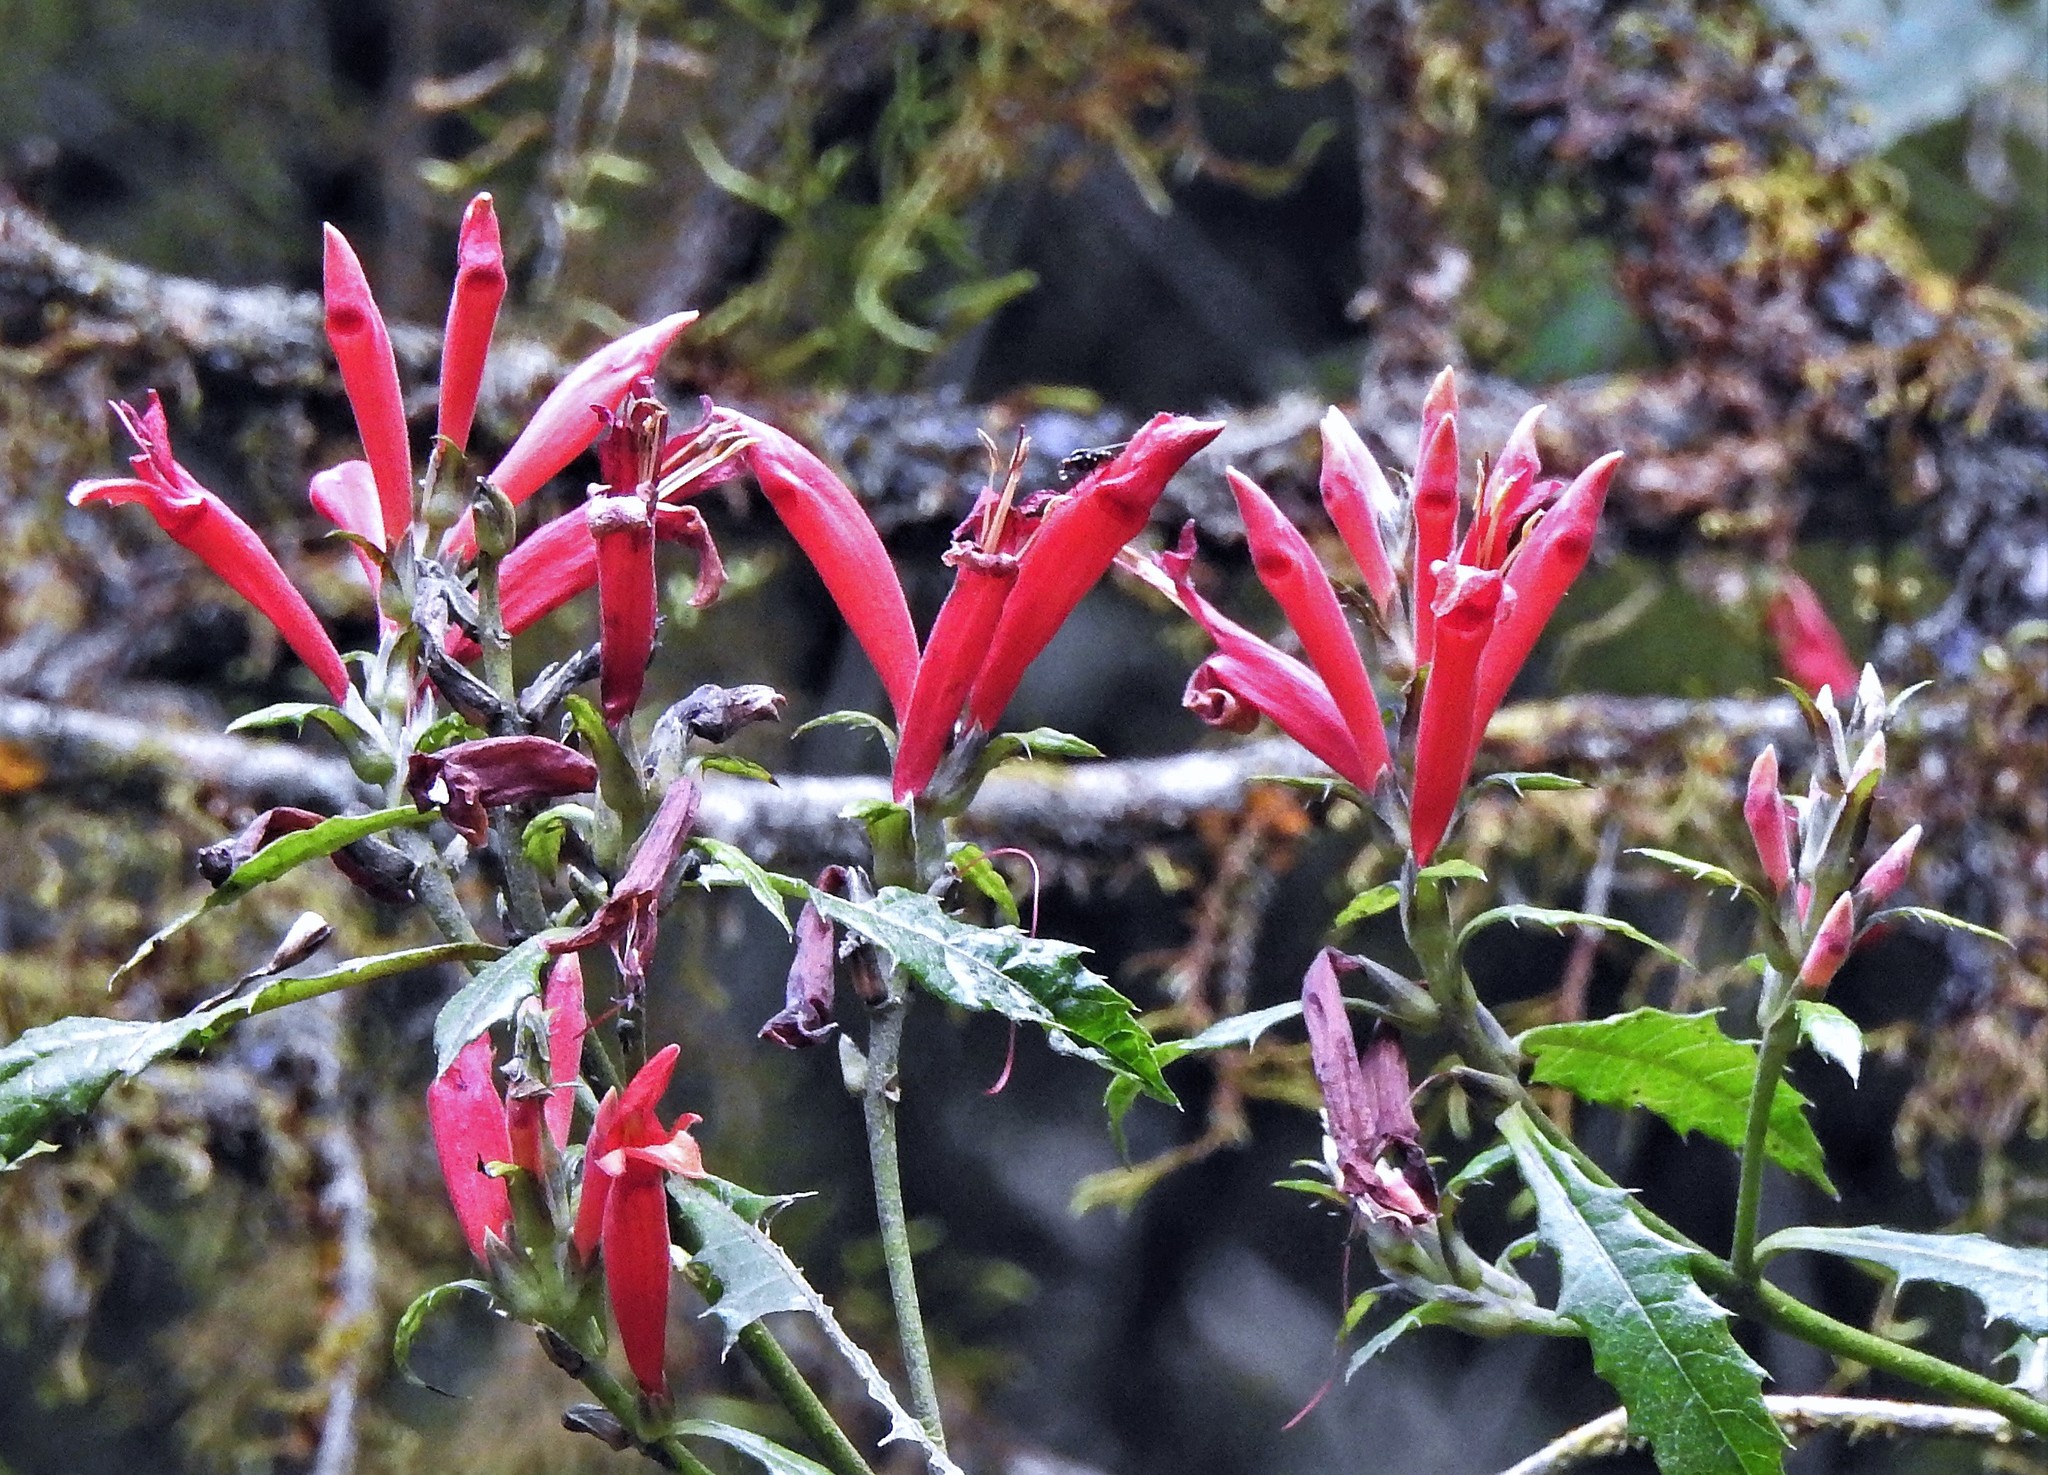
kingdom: Plantae
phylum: Tracheophyta
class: Magnoliopsida
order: Lamiales
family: Acanthaceae
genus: Aphelandra
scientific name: Aphelandra hieronymi
